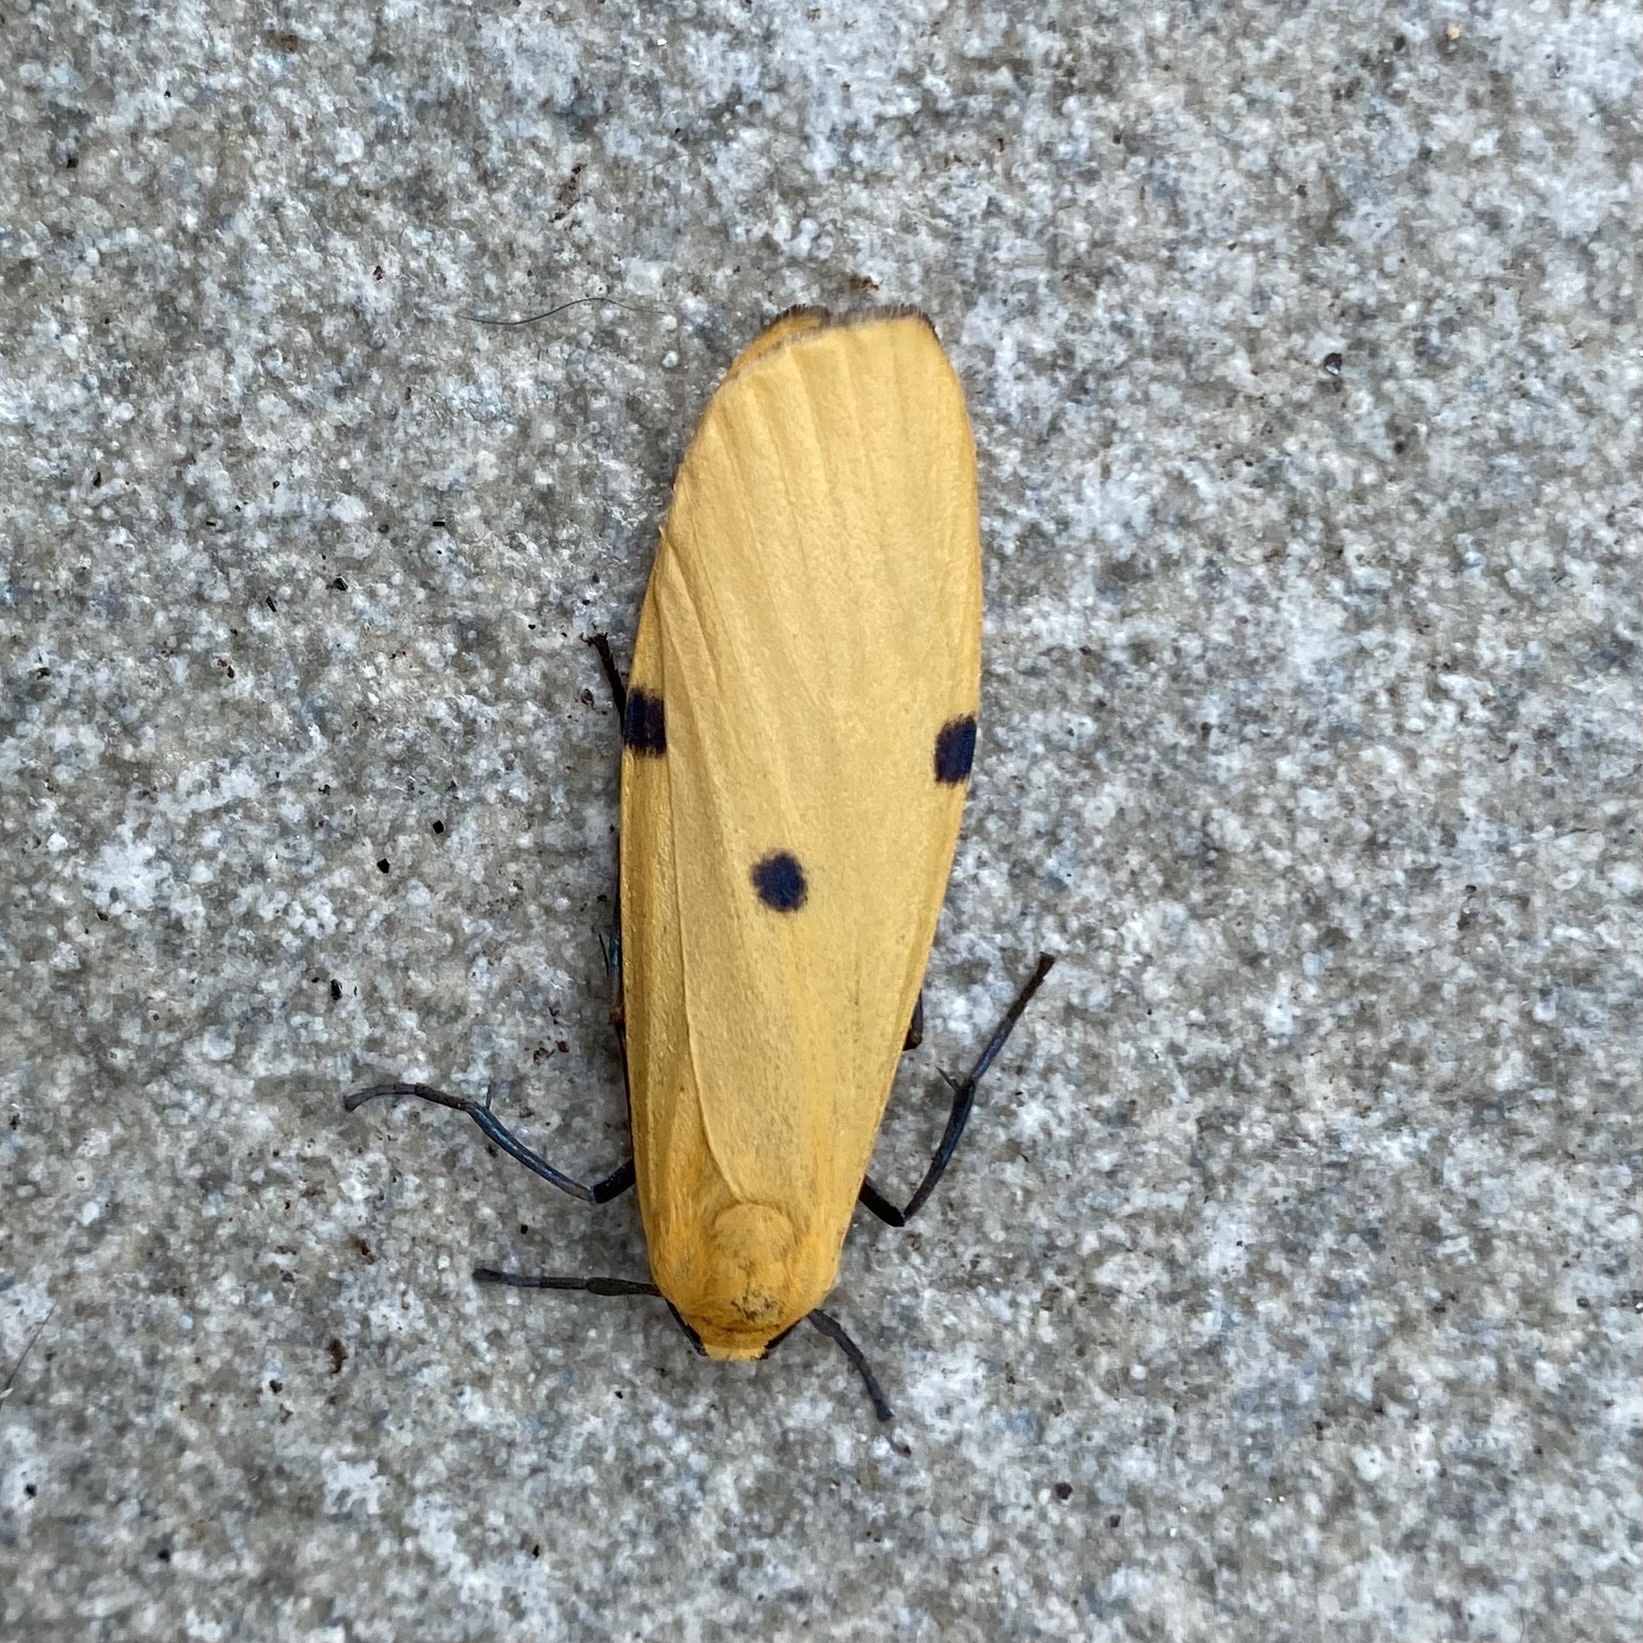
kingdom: Animalia
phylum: Arthropoda
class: Insecta
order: Lepidoptera
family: Erebidae
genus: Lithosia
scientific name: Lithosia quadra
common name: Four-spotted footman
